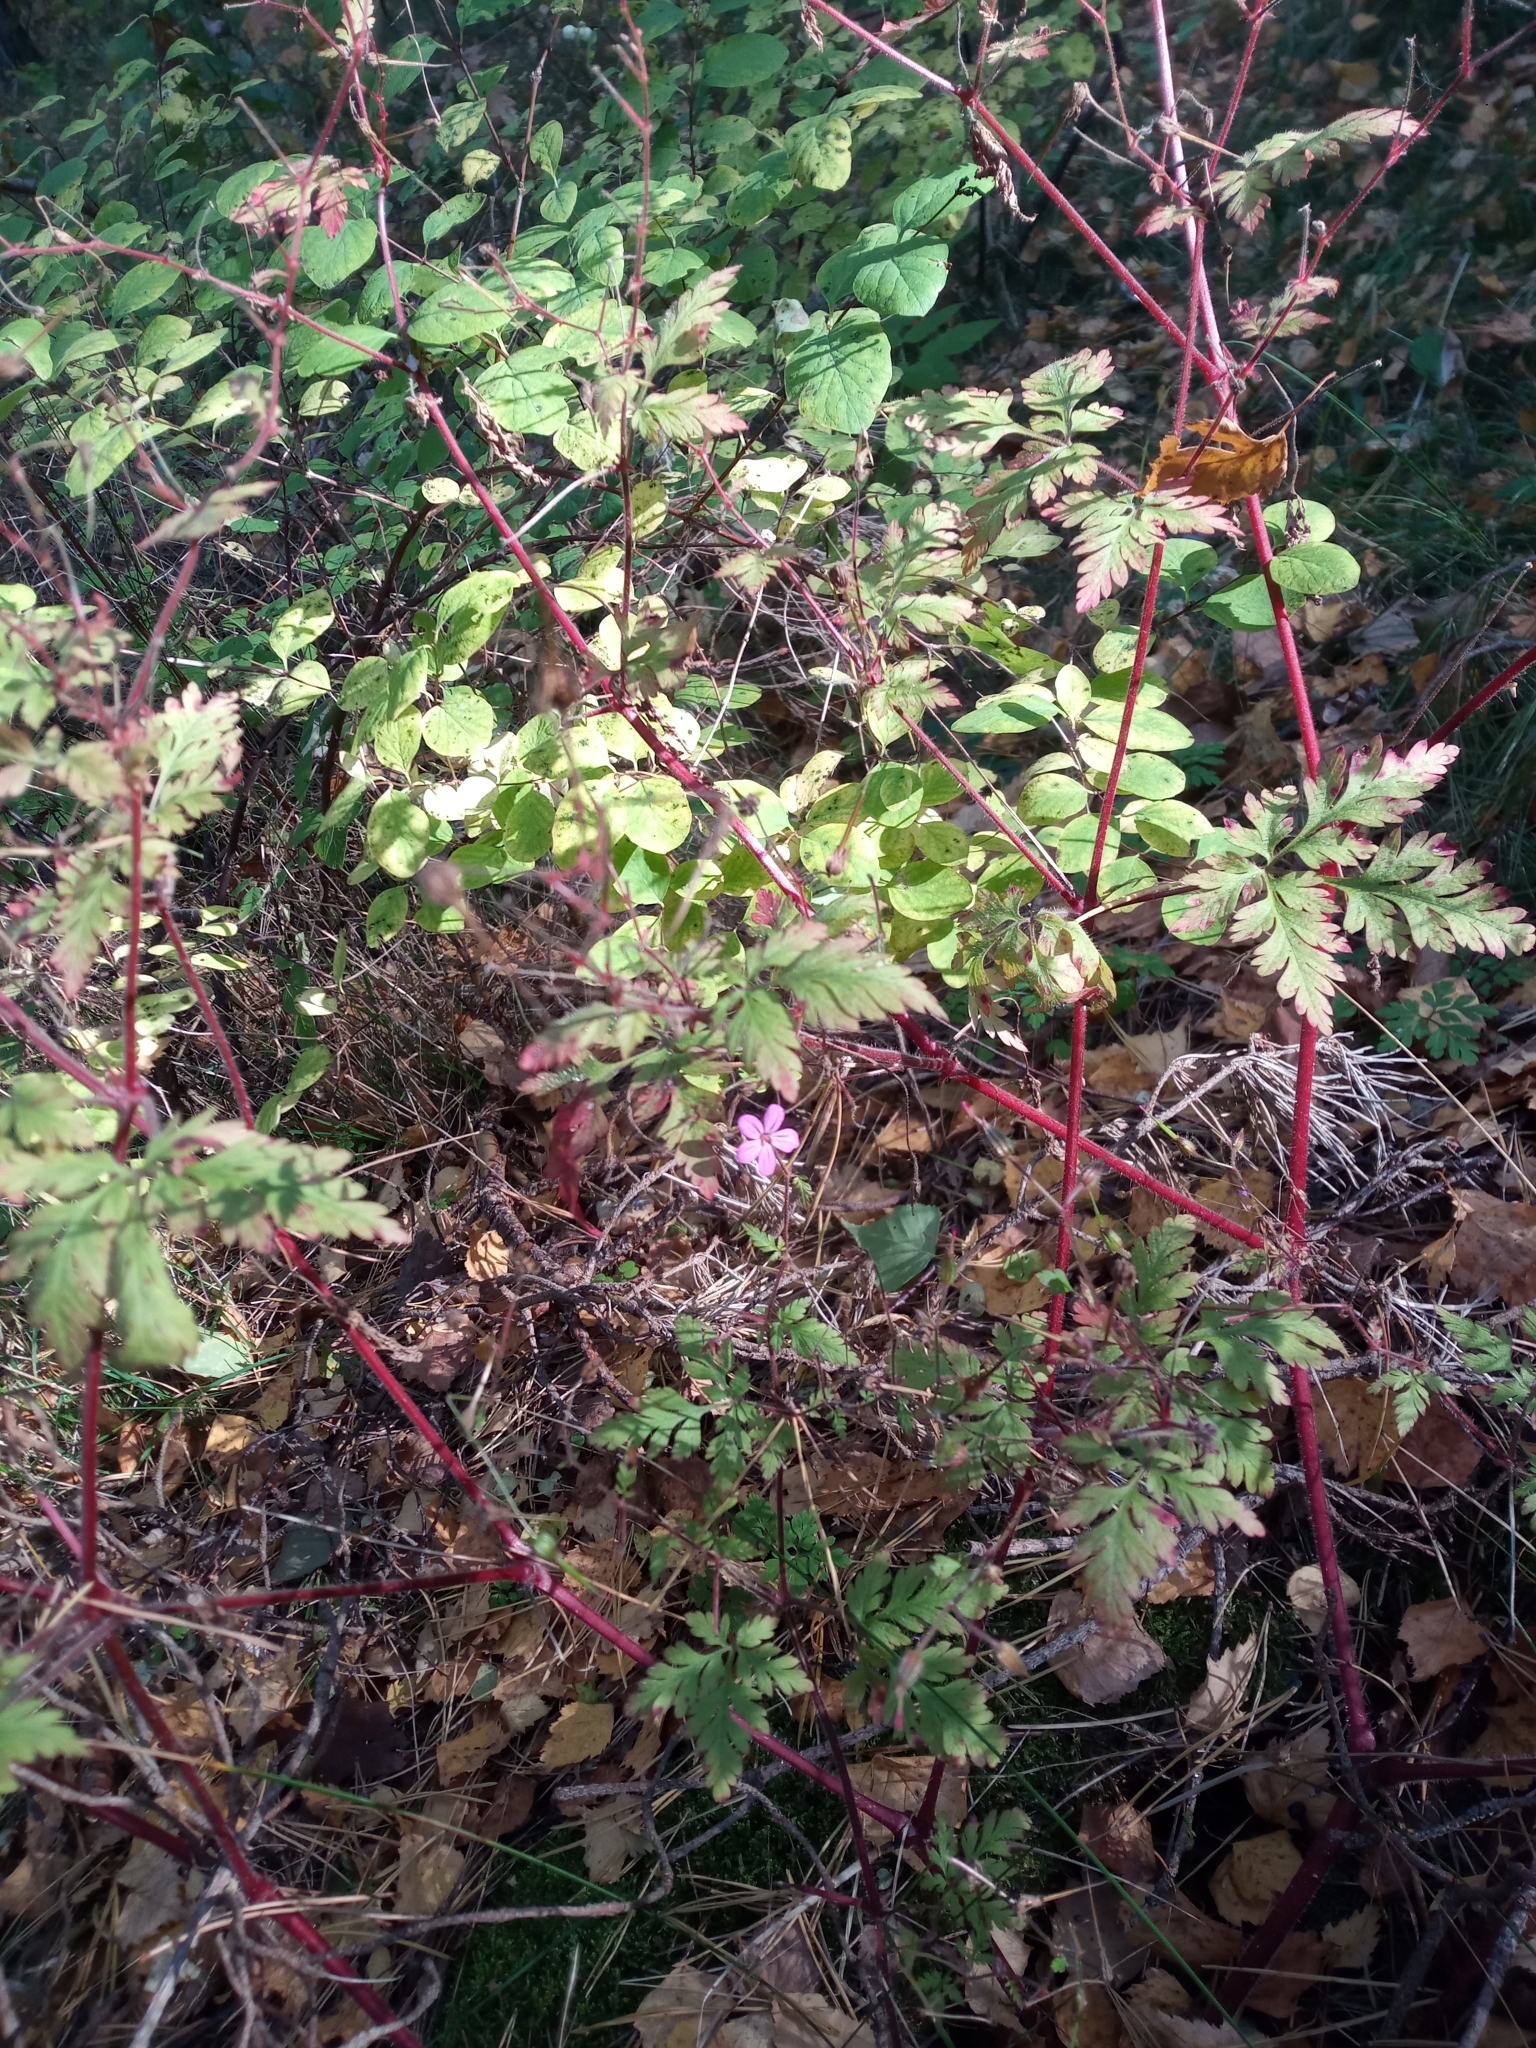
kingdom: Plantae
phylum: Tracheophyta
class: Magnoliopsida
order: Geraniales
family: Geraniaceae
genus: Geranium
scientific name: Geranium robertianum
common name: Herb-robert
